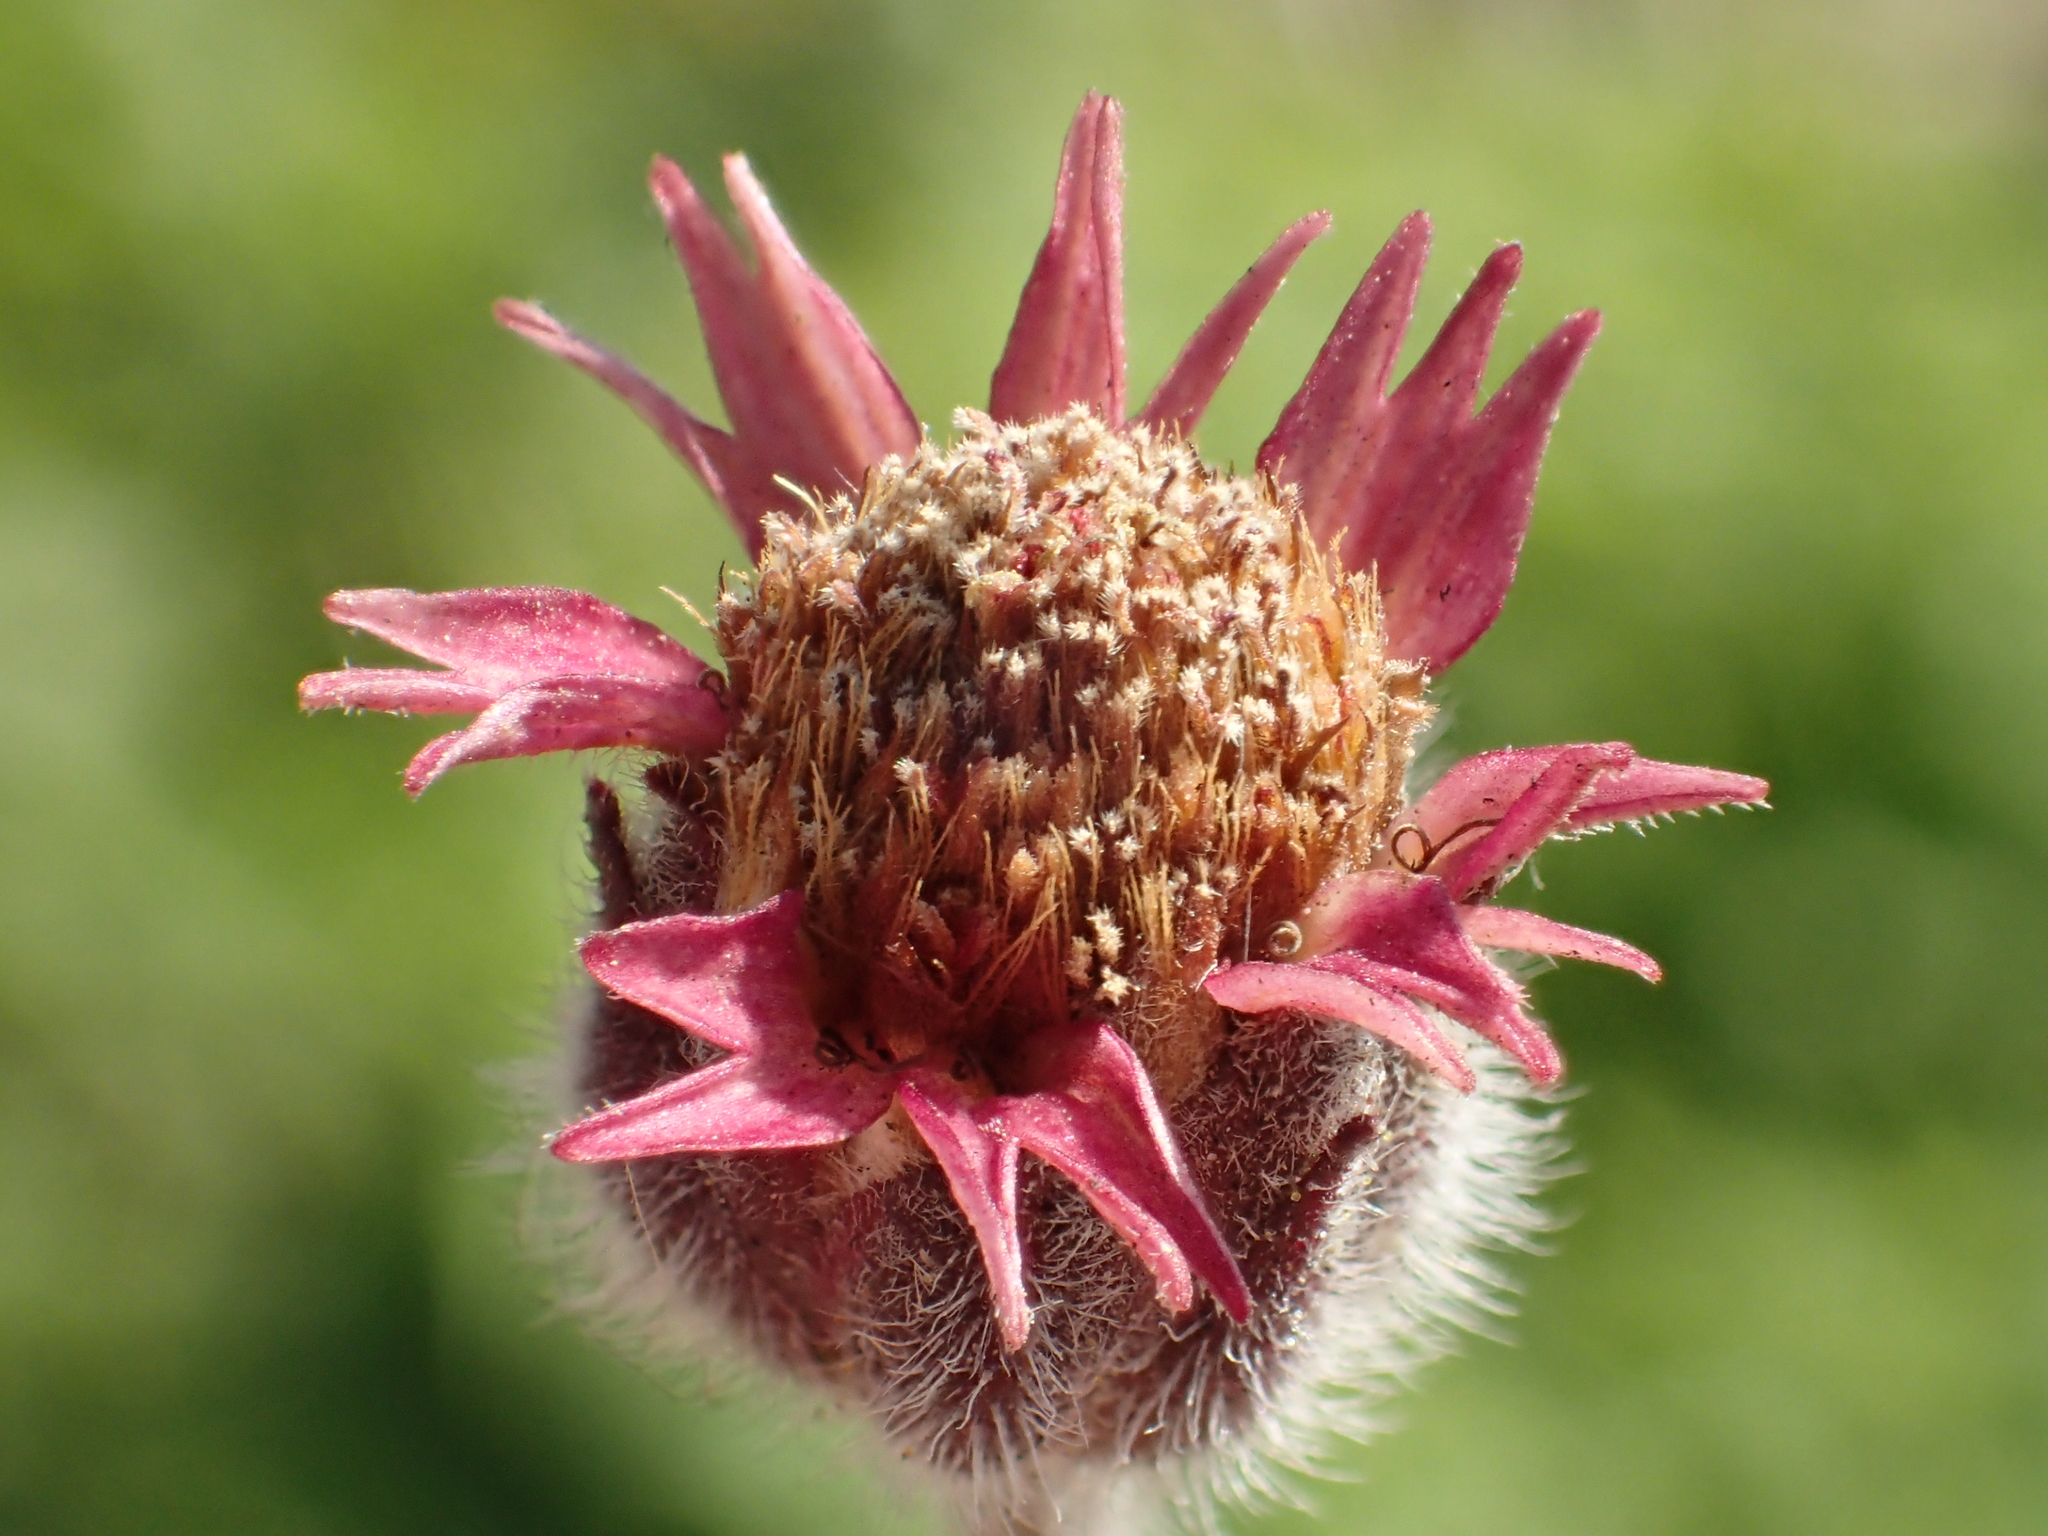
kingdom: Plantae
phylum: Tracheophyta
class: Magnoliopsida
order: Asterales
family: Asteraceae
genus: Tridax
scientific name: Tridax procumbens
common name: Coatbuttons
